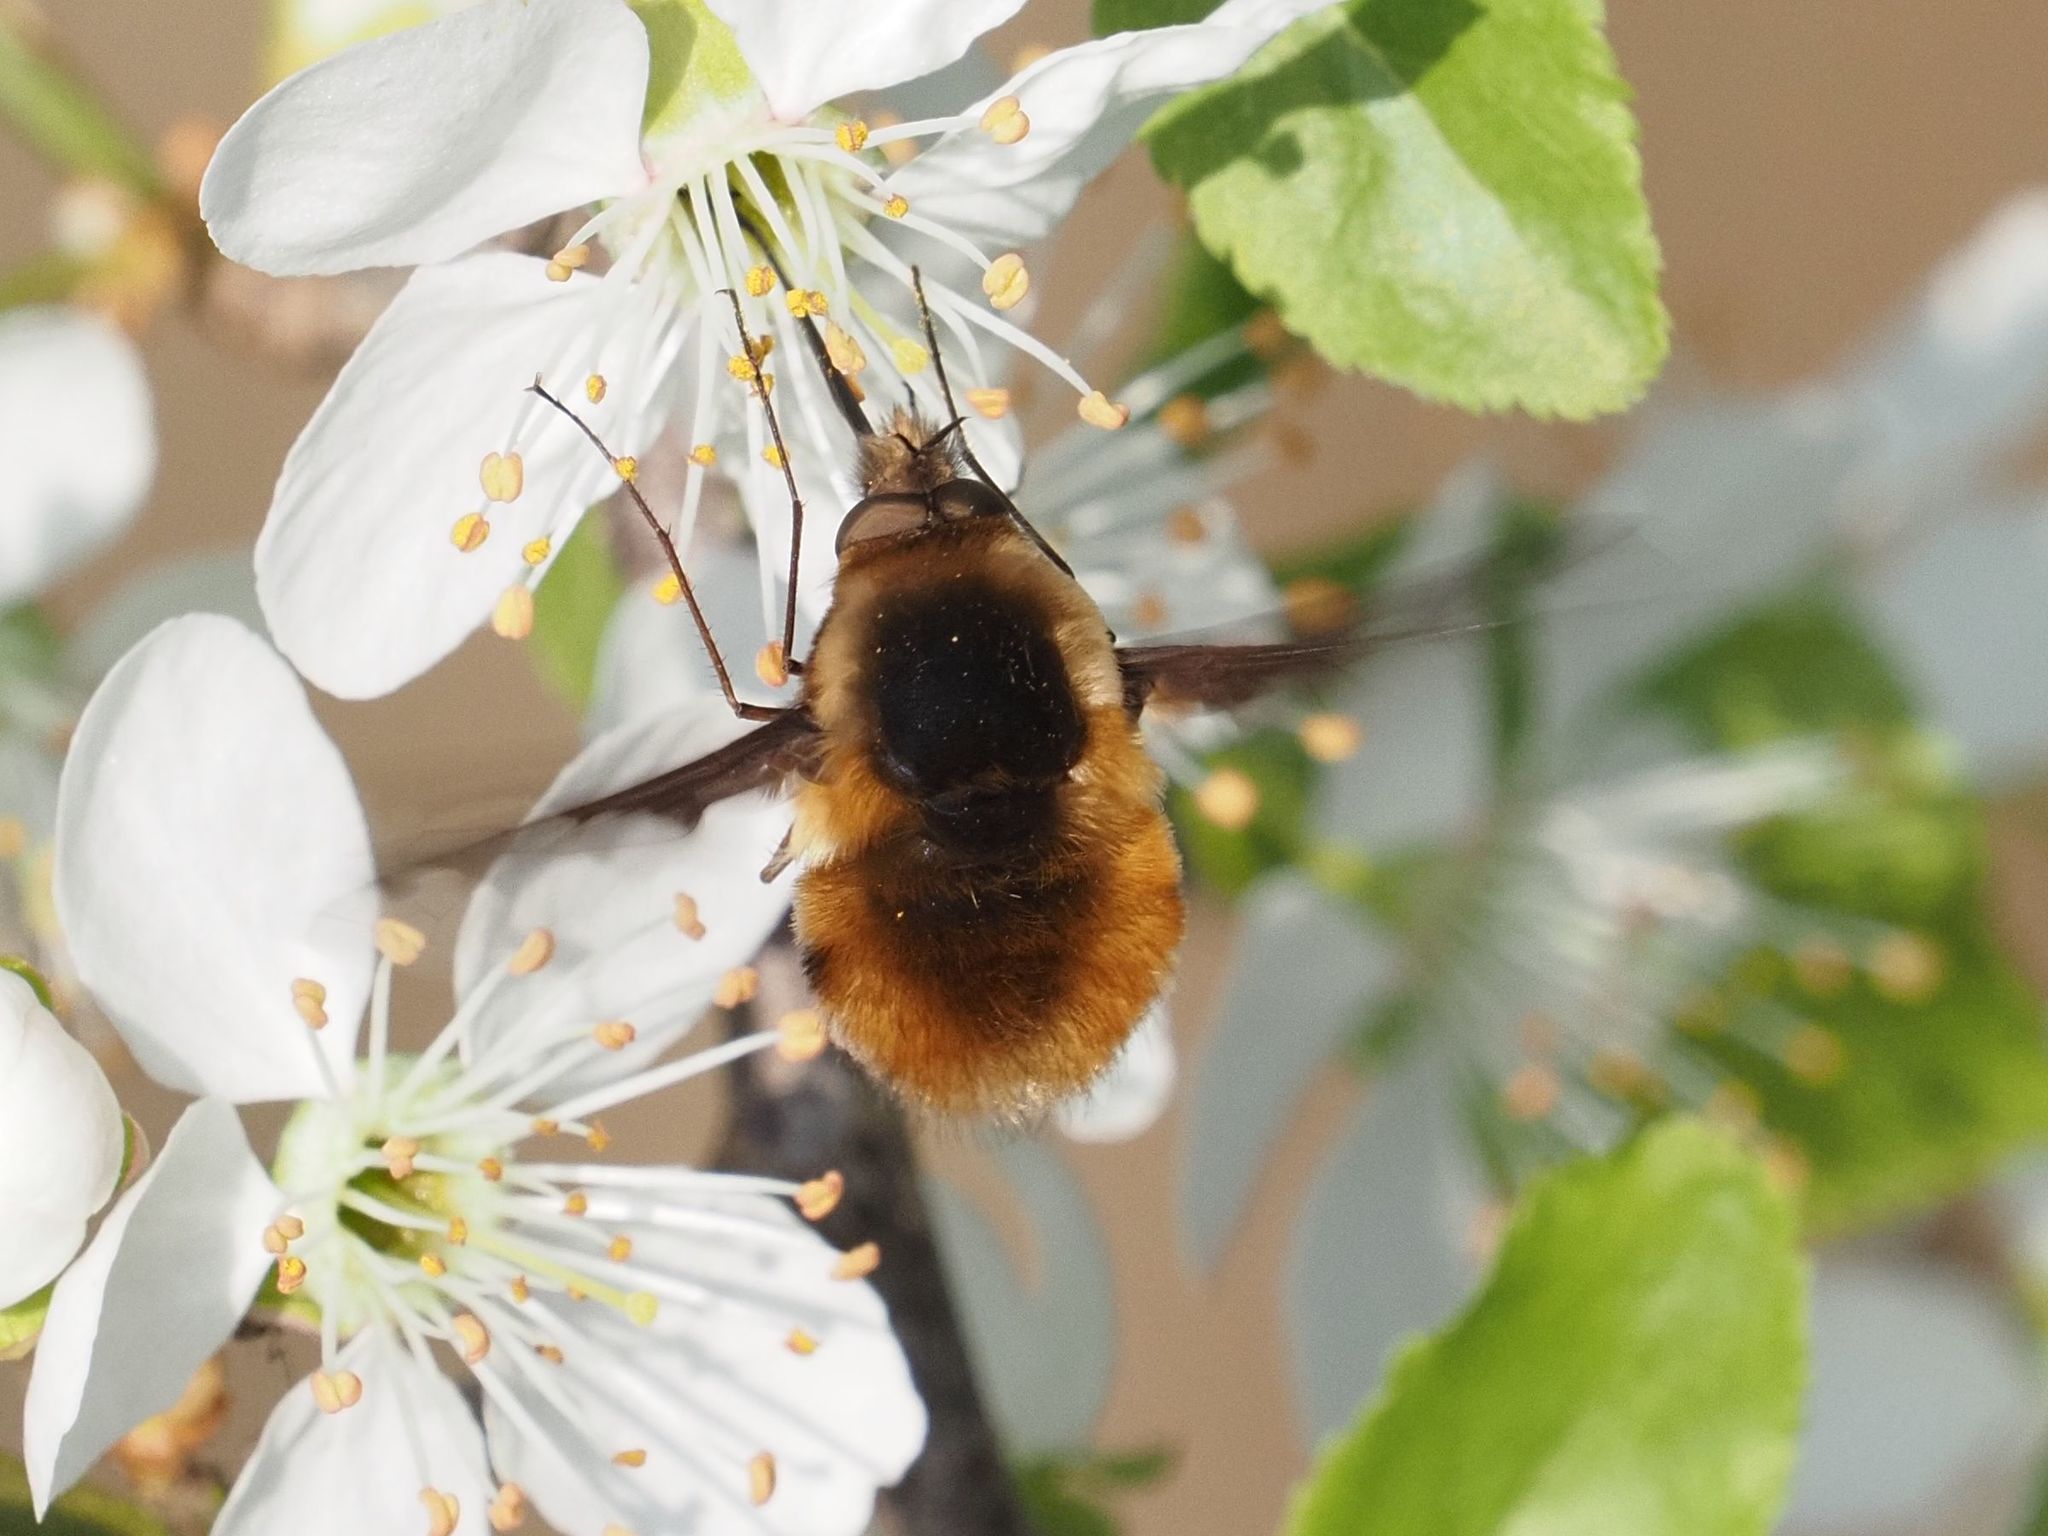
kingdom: Animalia
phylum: Arthropoda
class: Insecta
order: Diptera
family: Bombyliidae
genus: Bombylius
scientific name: Bombylius major
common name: Bee fly
